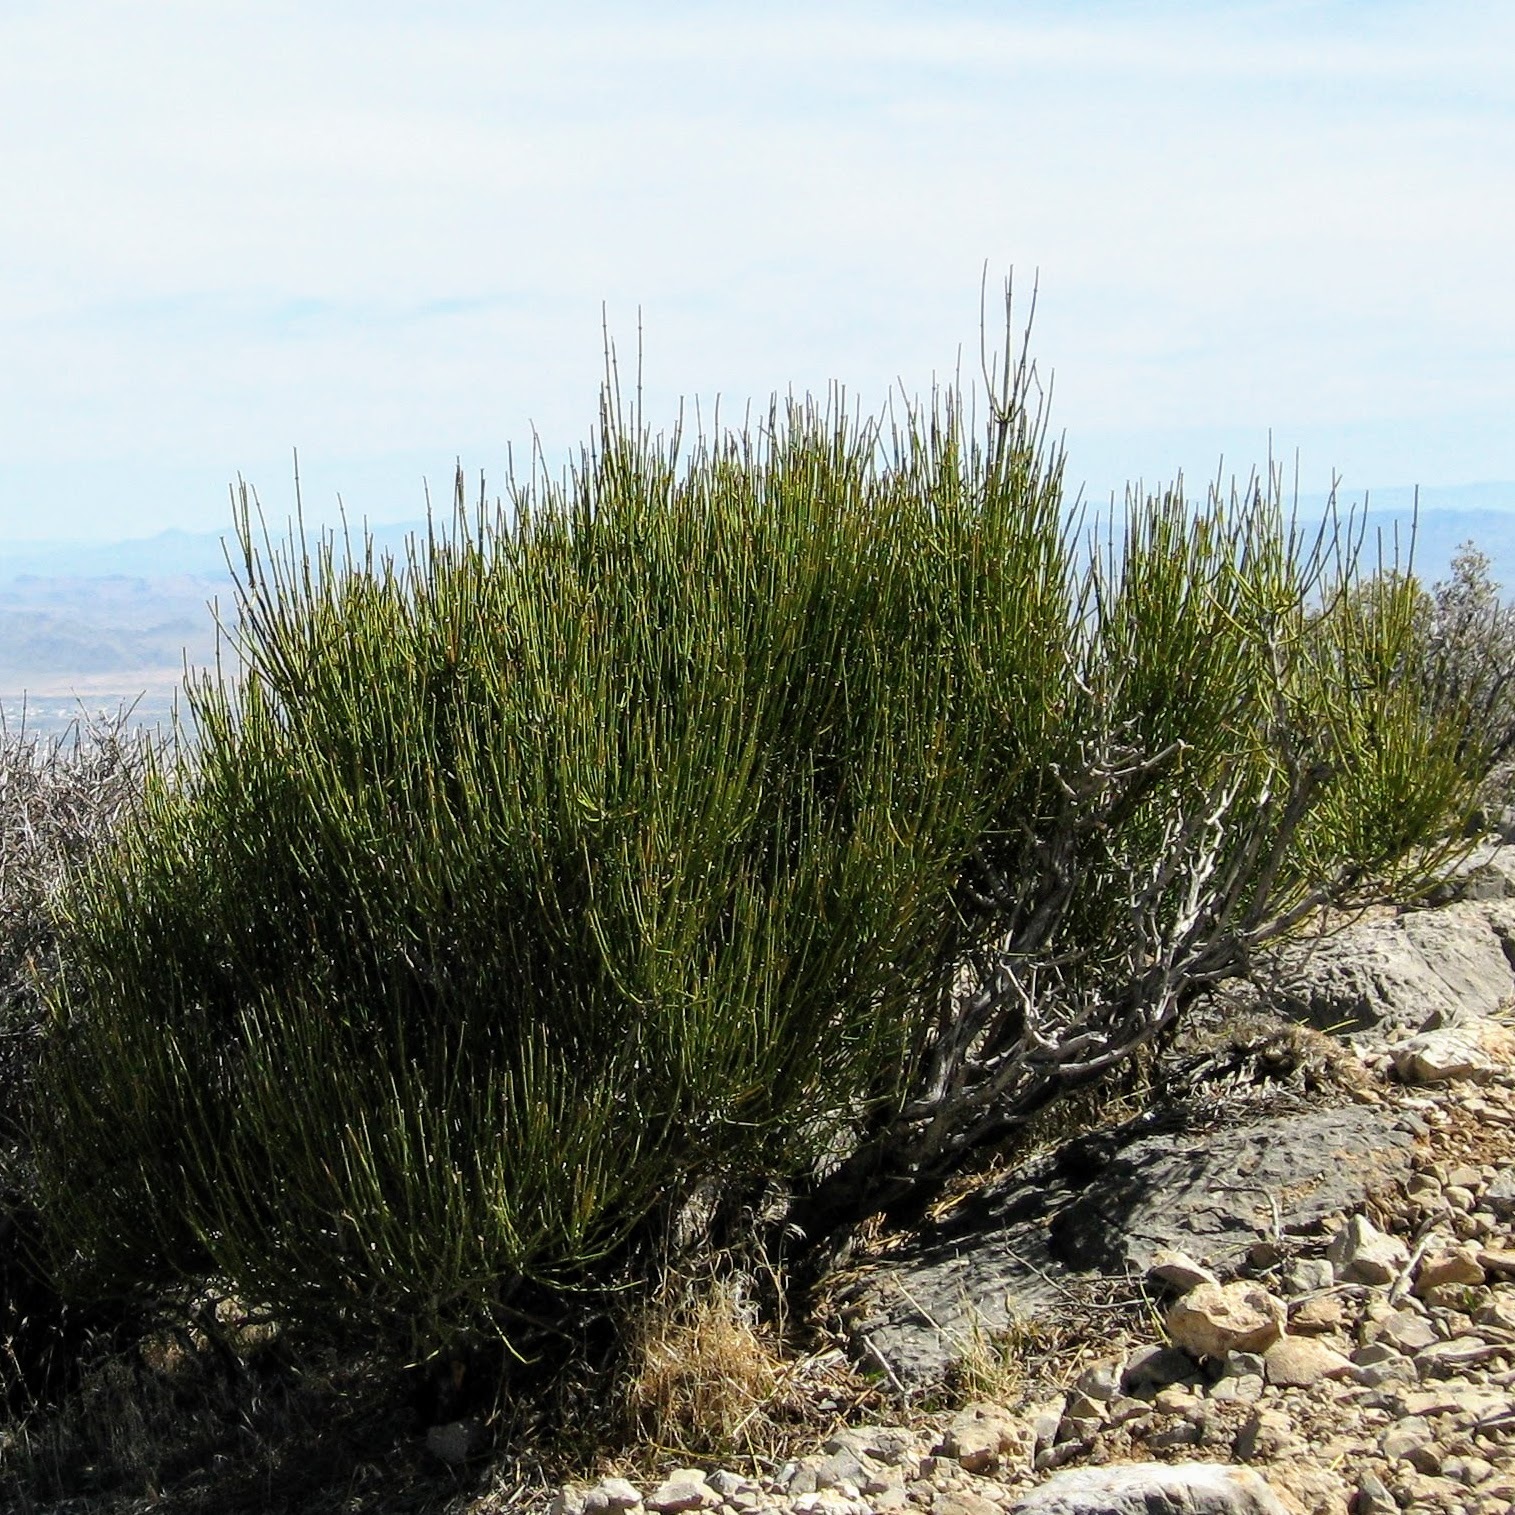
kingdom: Plantae
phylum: Tracheophyta
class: Gnetopsida
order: Ephedrales
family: Ephedraceae
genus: Ephedra
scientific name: Ephedra viridis
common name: Green ephedra
